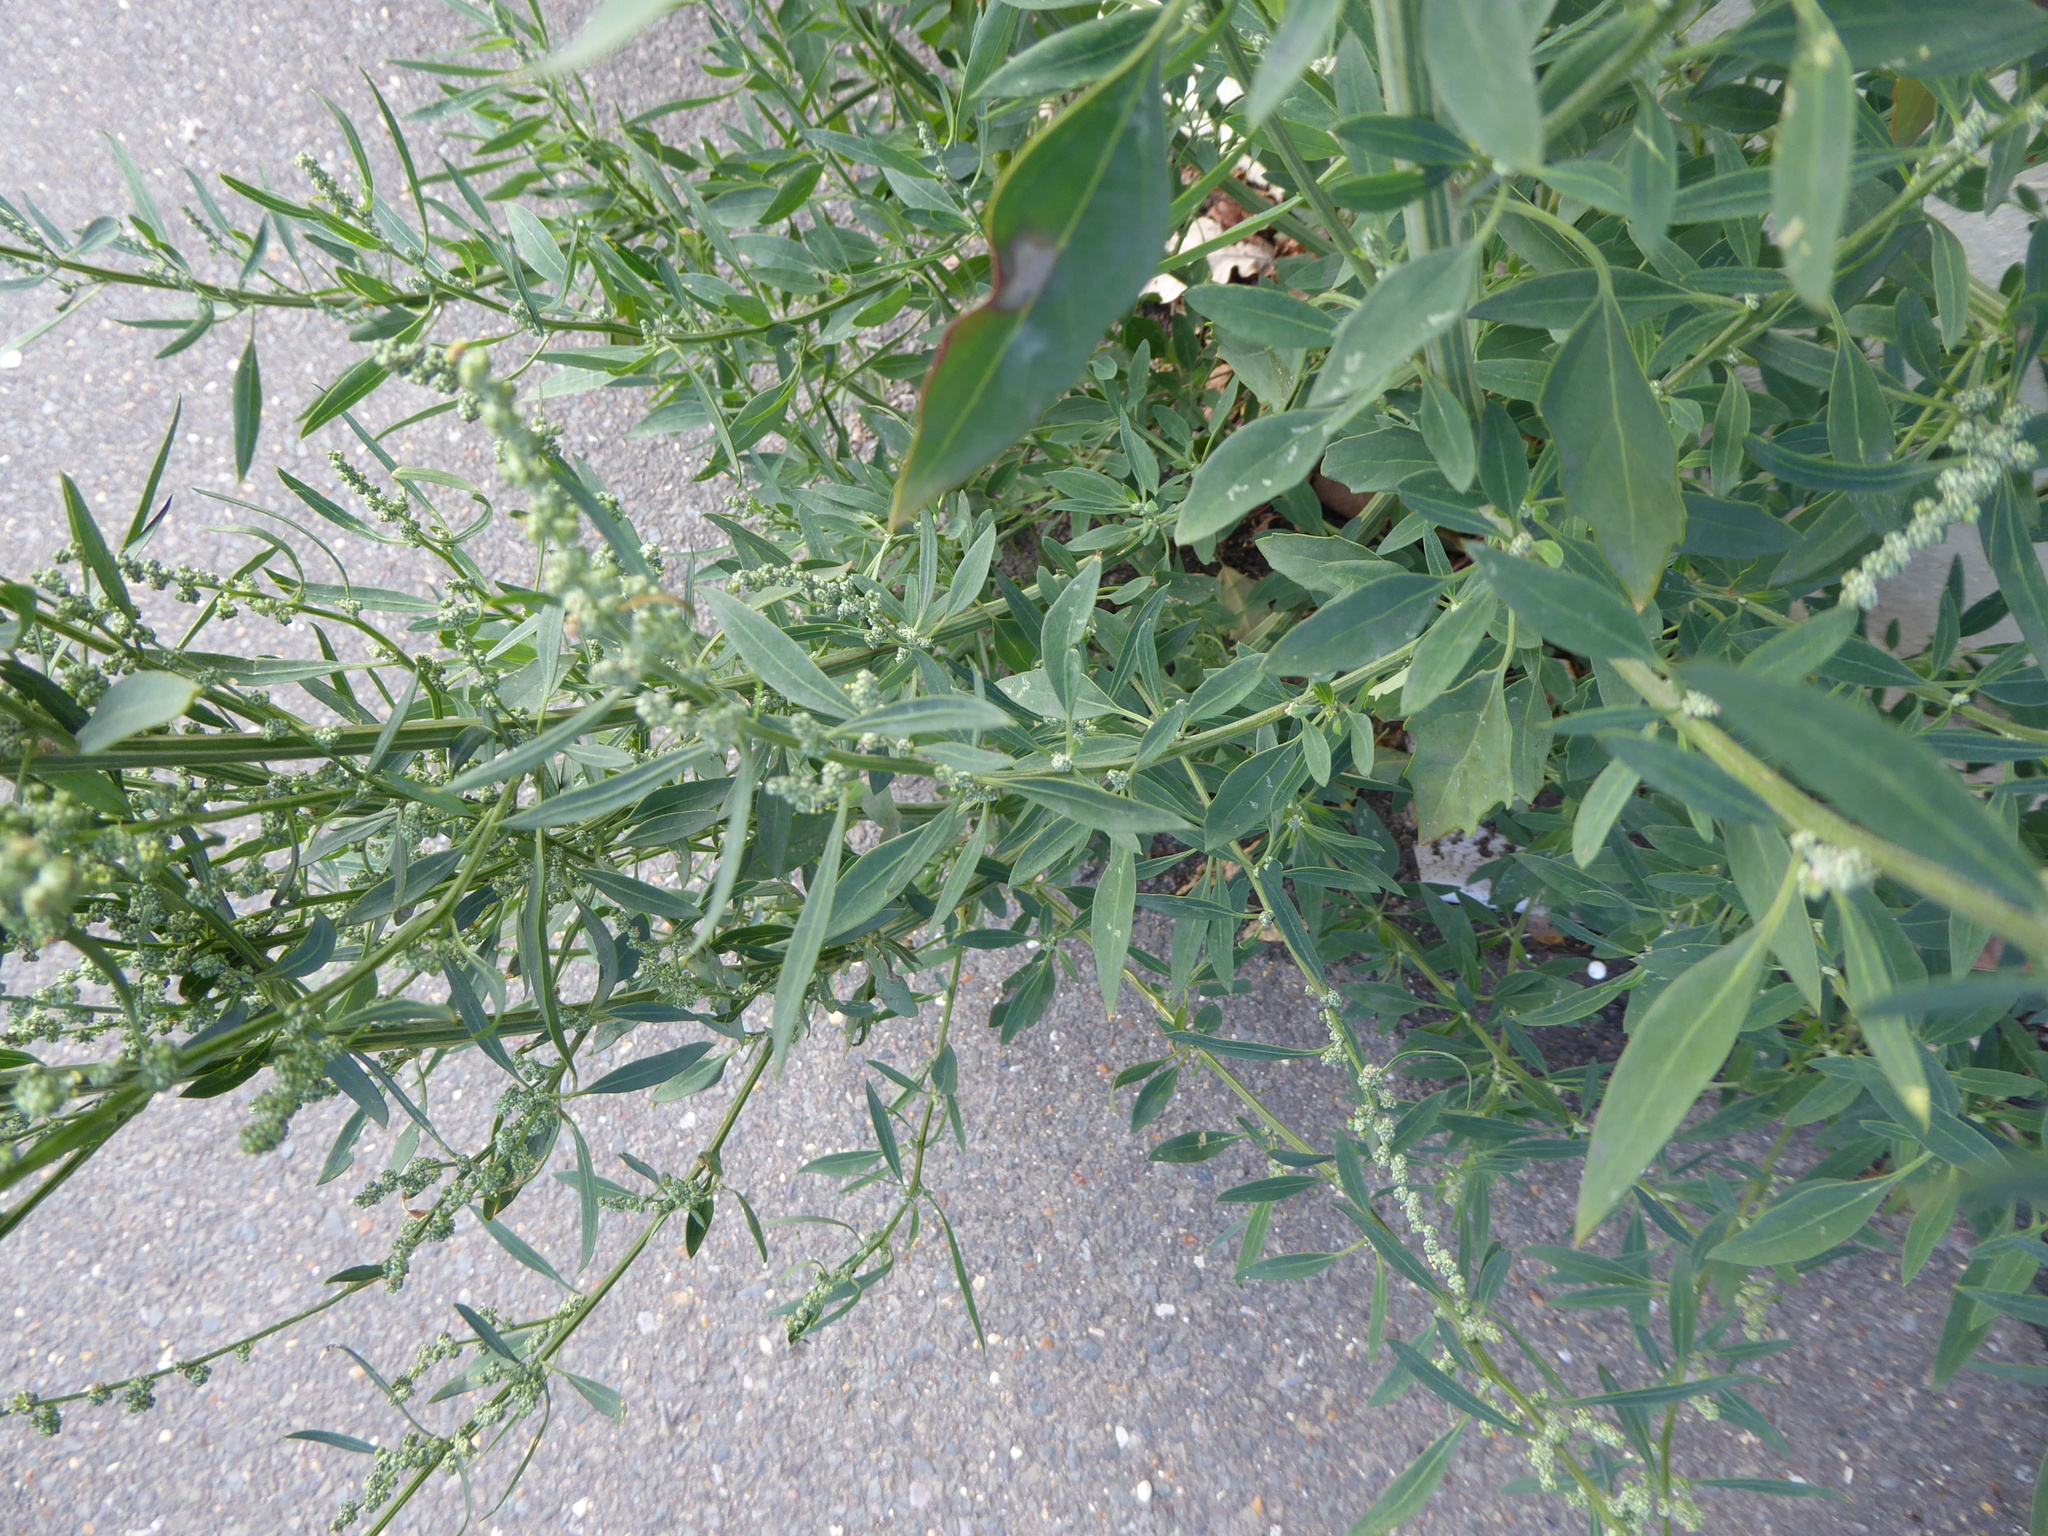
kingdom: Plantae
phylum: Tracheophyta
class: Magnoliopsida
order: Caryophyllales
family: Amaranthaceae
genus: Chenopodium
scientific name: Chenopodium album
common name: Fat-hen
